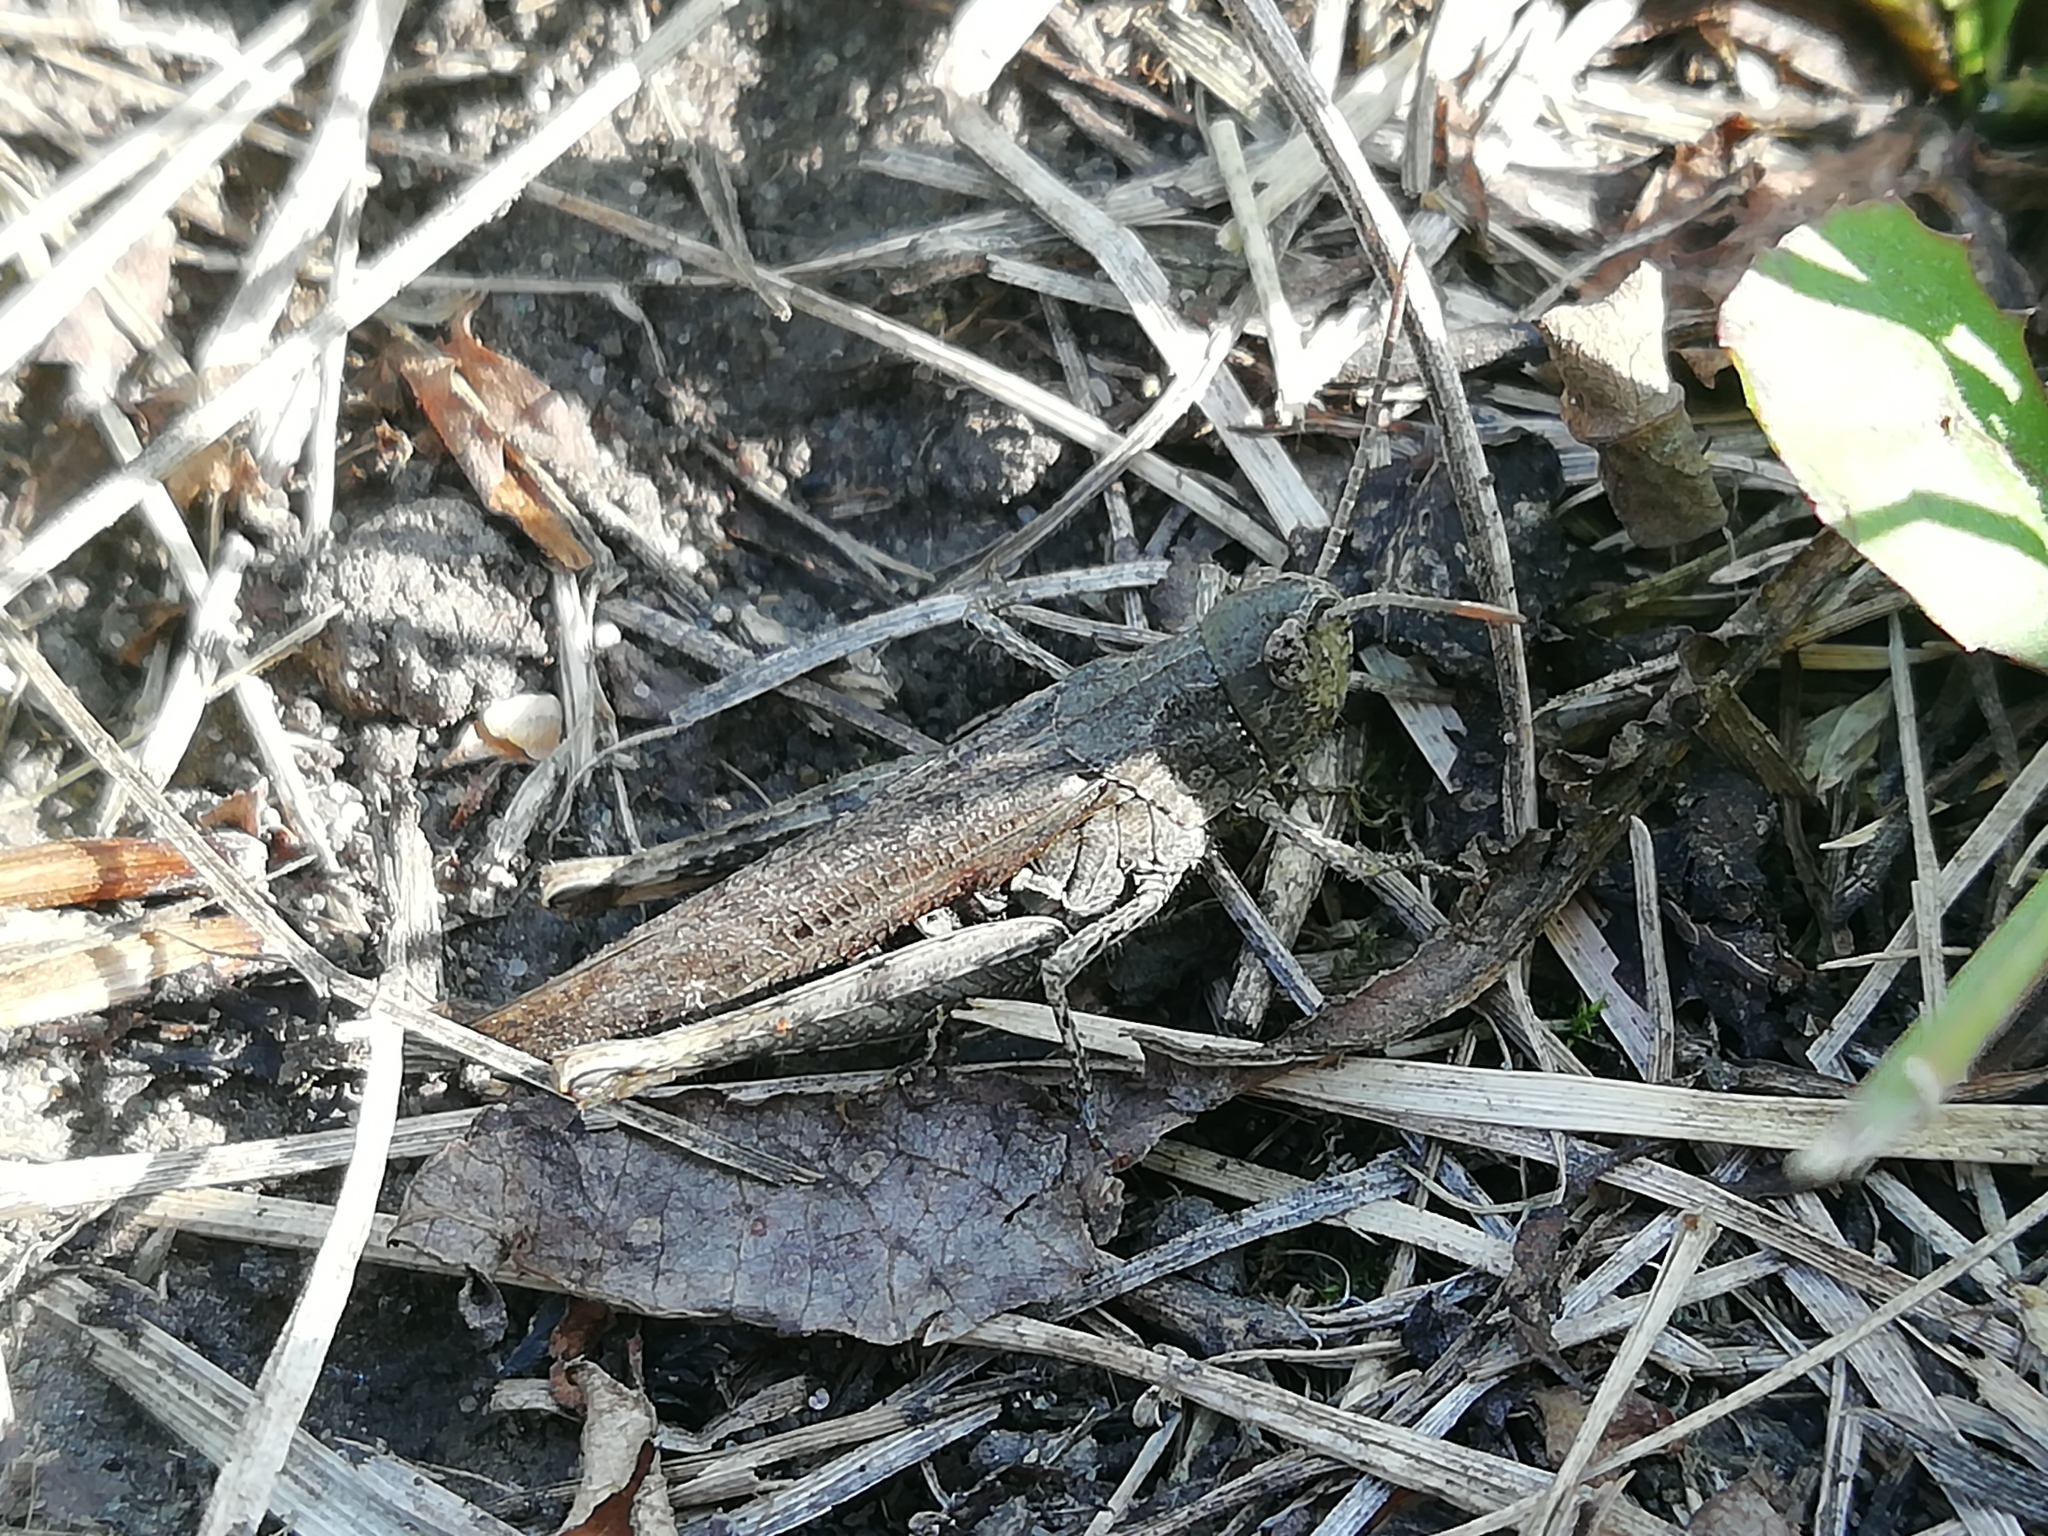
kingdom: Animalia
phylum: Arthropoda
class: Insecta
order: Orthoptera
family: Acrididae
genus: Chorthippus
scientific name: Chorthippus biguttulus
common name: Bow-winged grasshopper
